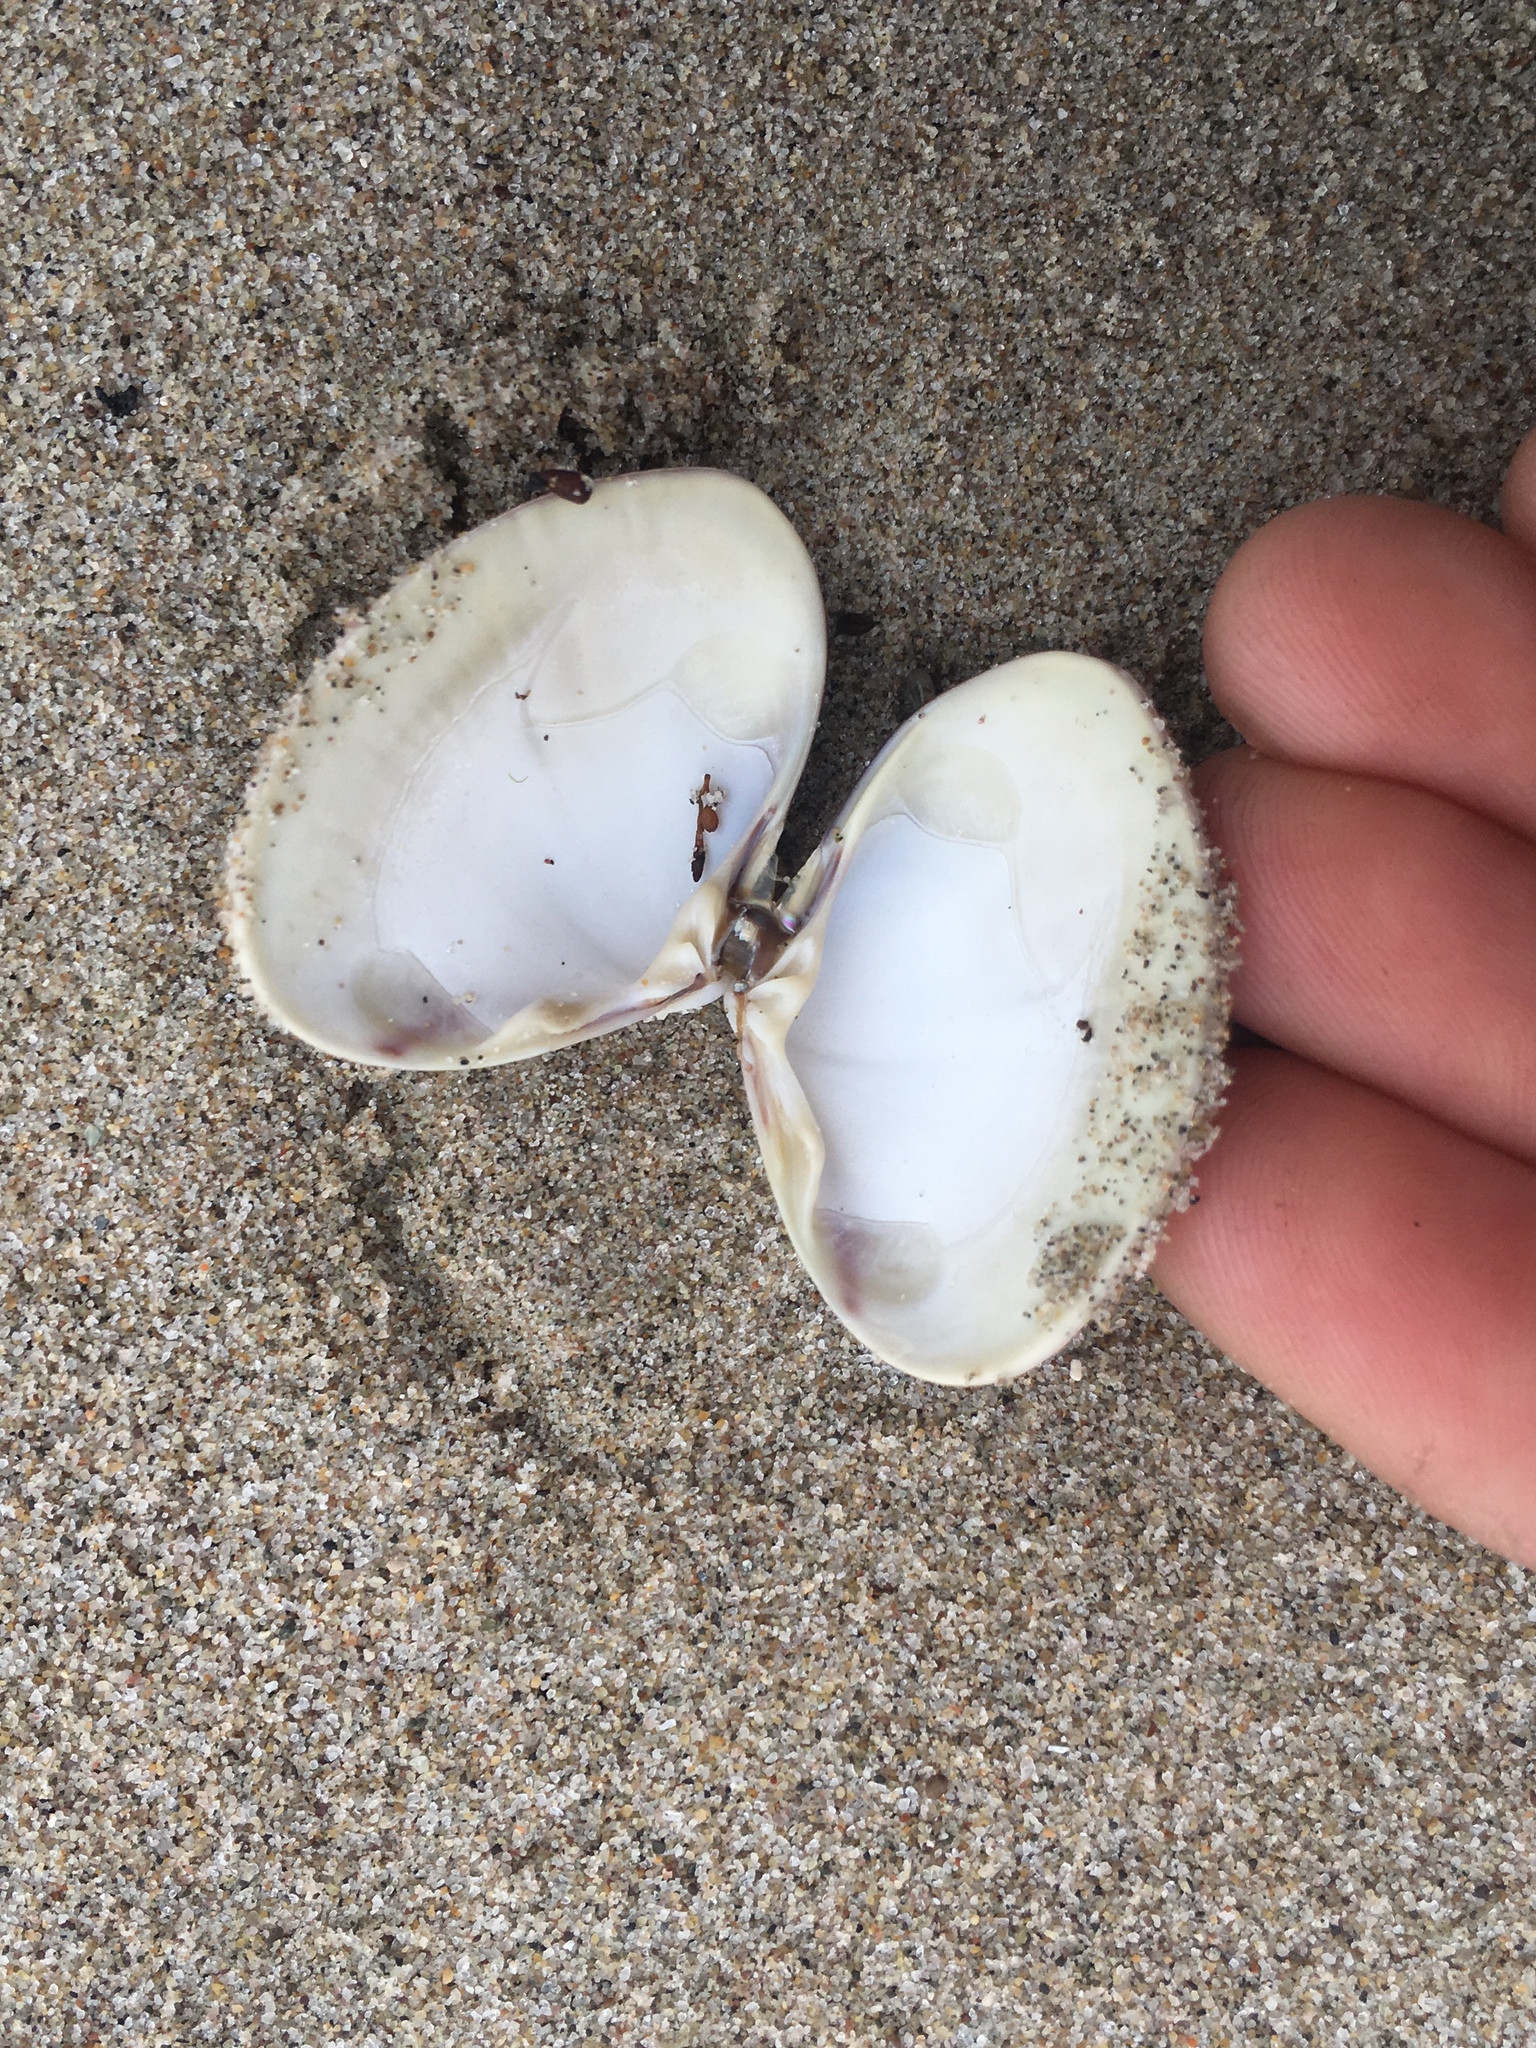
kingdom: Animalia
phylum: Mollusca
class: Bivalvia
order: Venerida
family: Veneridae
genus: Tivela
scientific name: Tivela stultorum
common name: Pismo clam
